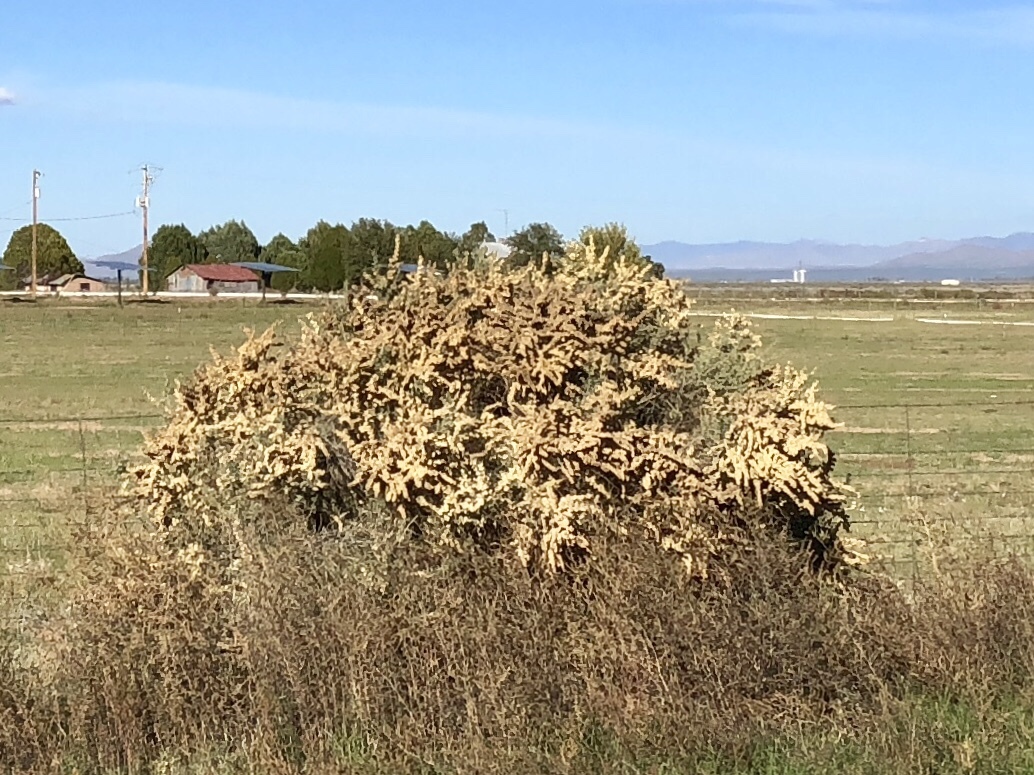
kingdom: Plantae
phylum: Tracheophyta
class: Magnoliopsida
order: Caryophyllales
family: Amaranthaceae
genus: Atriplex
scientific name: Atriplex canescens
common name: Four-wing saltbush
